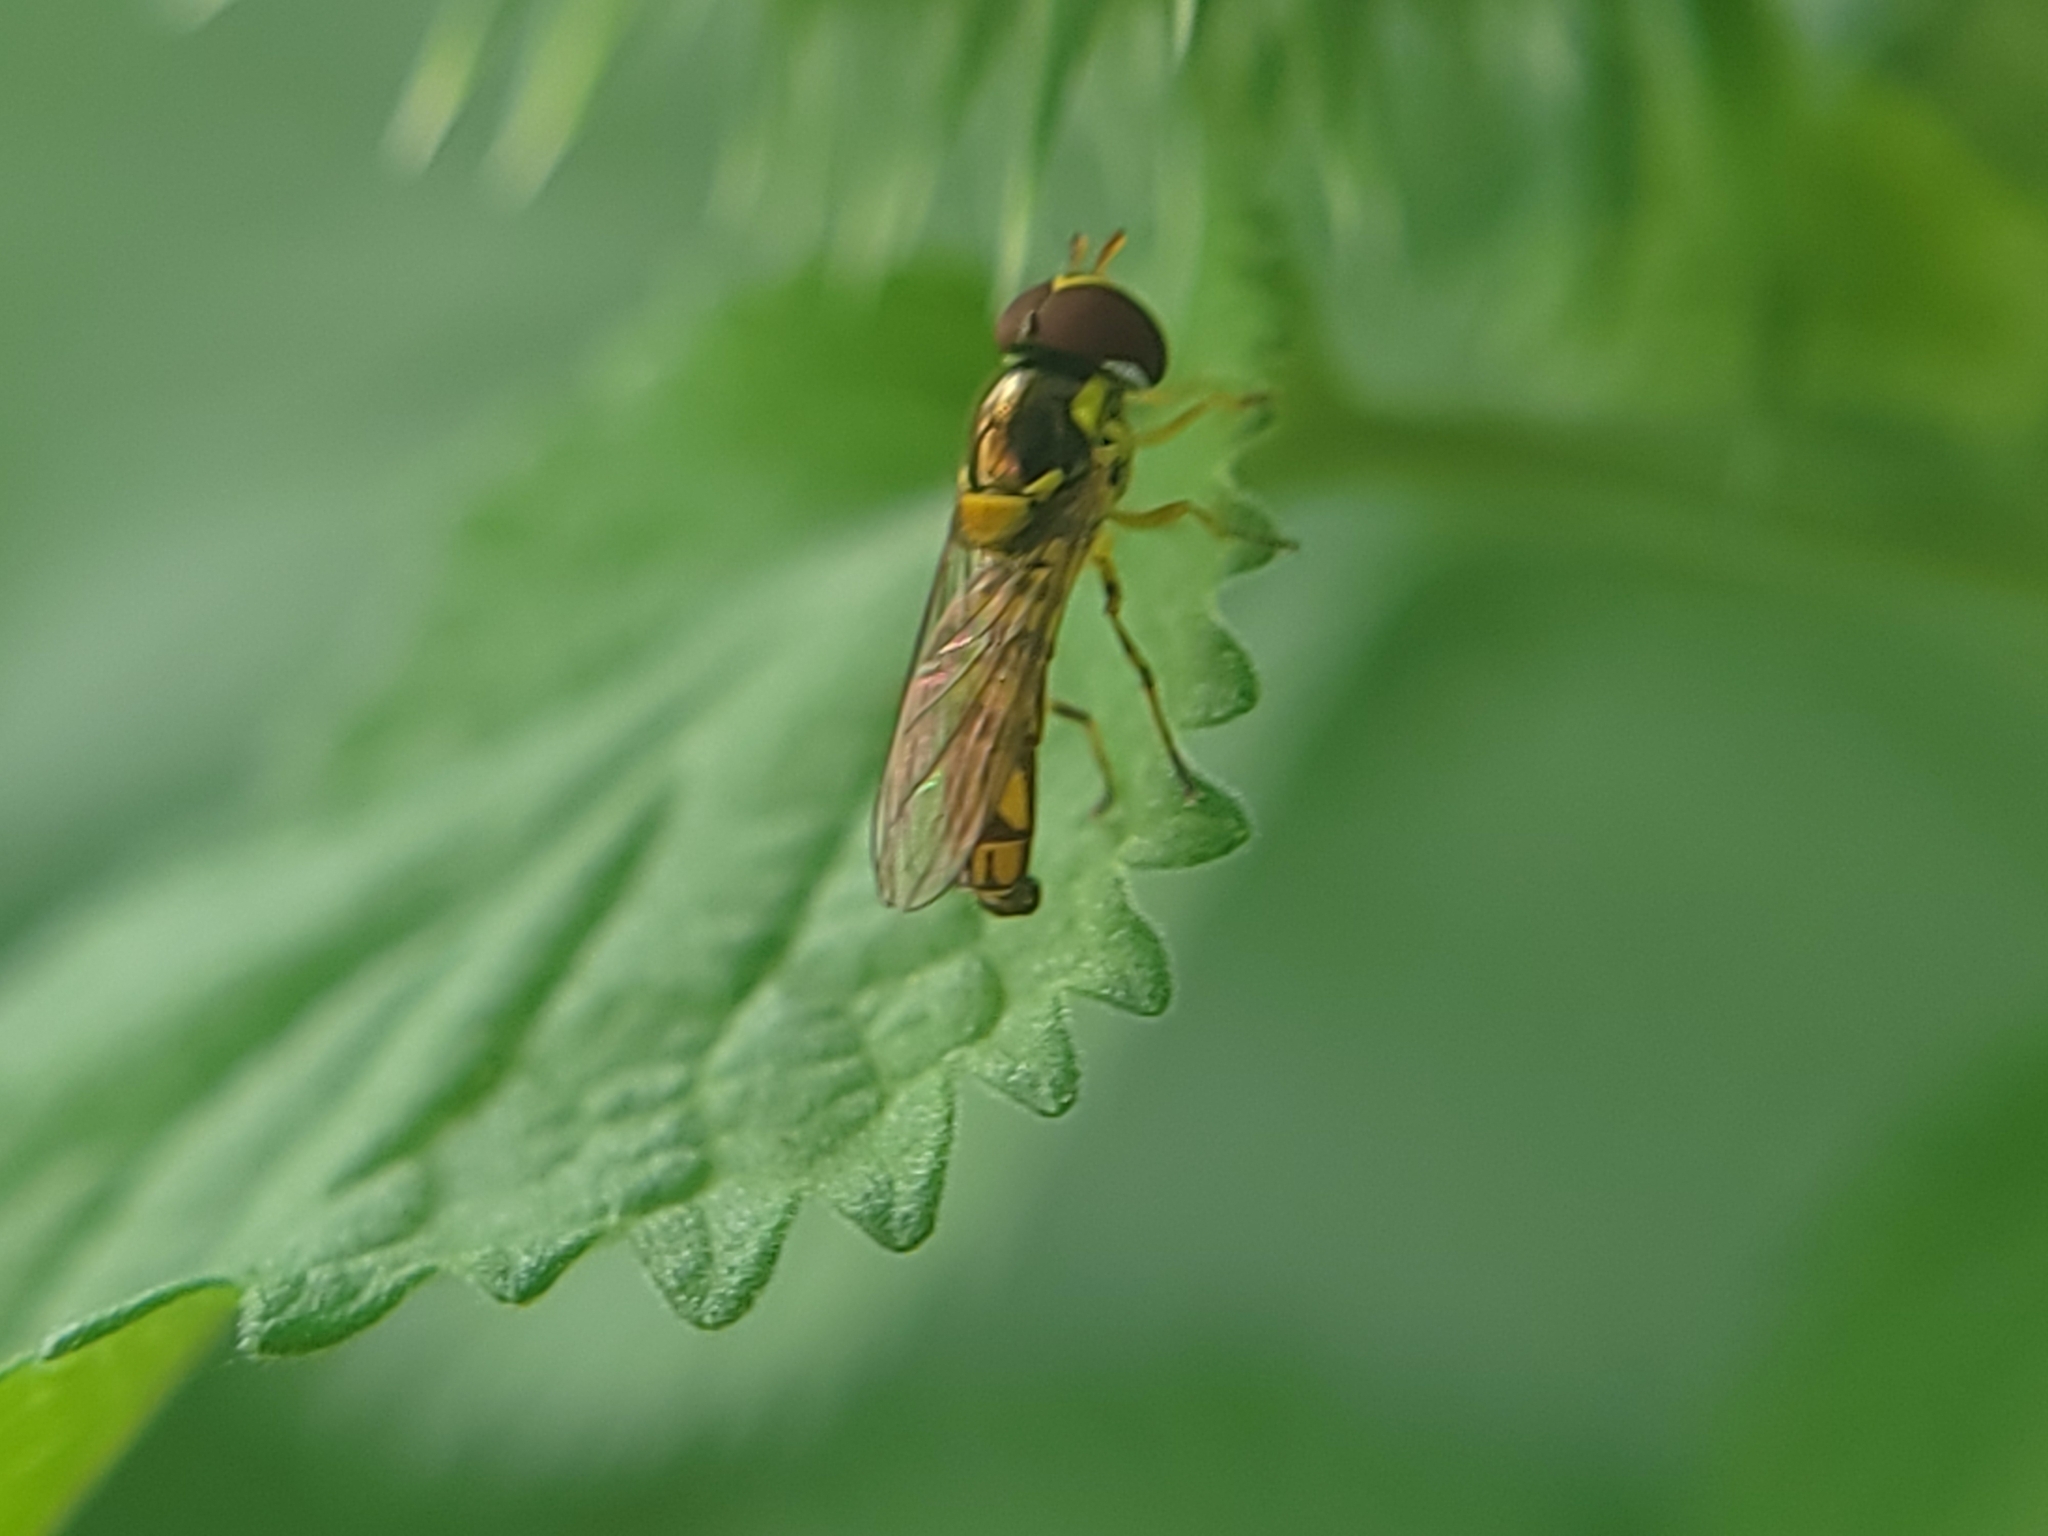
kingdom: Animalia
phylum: Arthropoda
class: Insecta
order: Diptera
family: Syrphidae
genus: Allograpta
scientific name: Allograpta obliqua
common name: Common oblique syrphid
